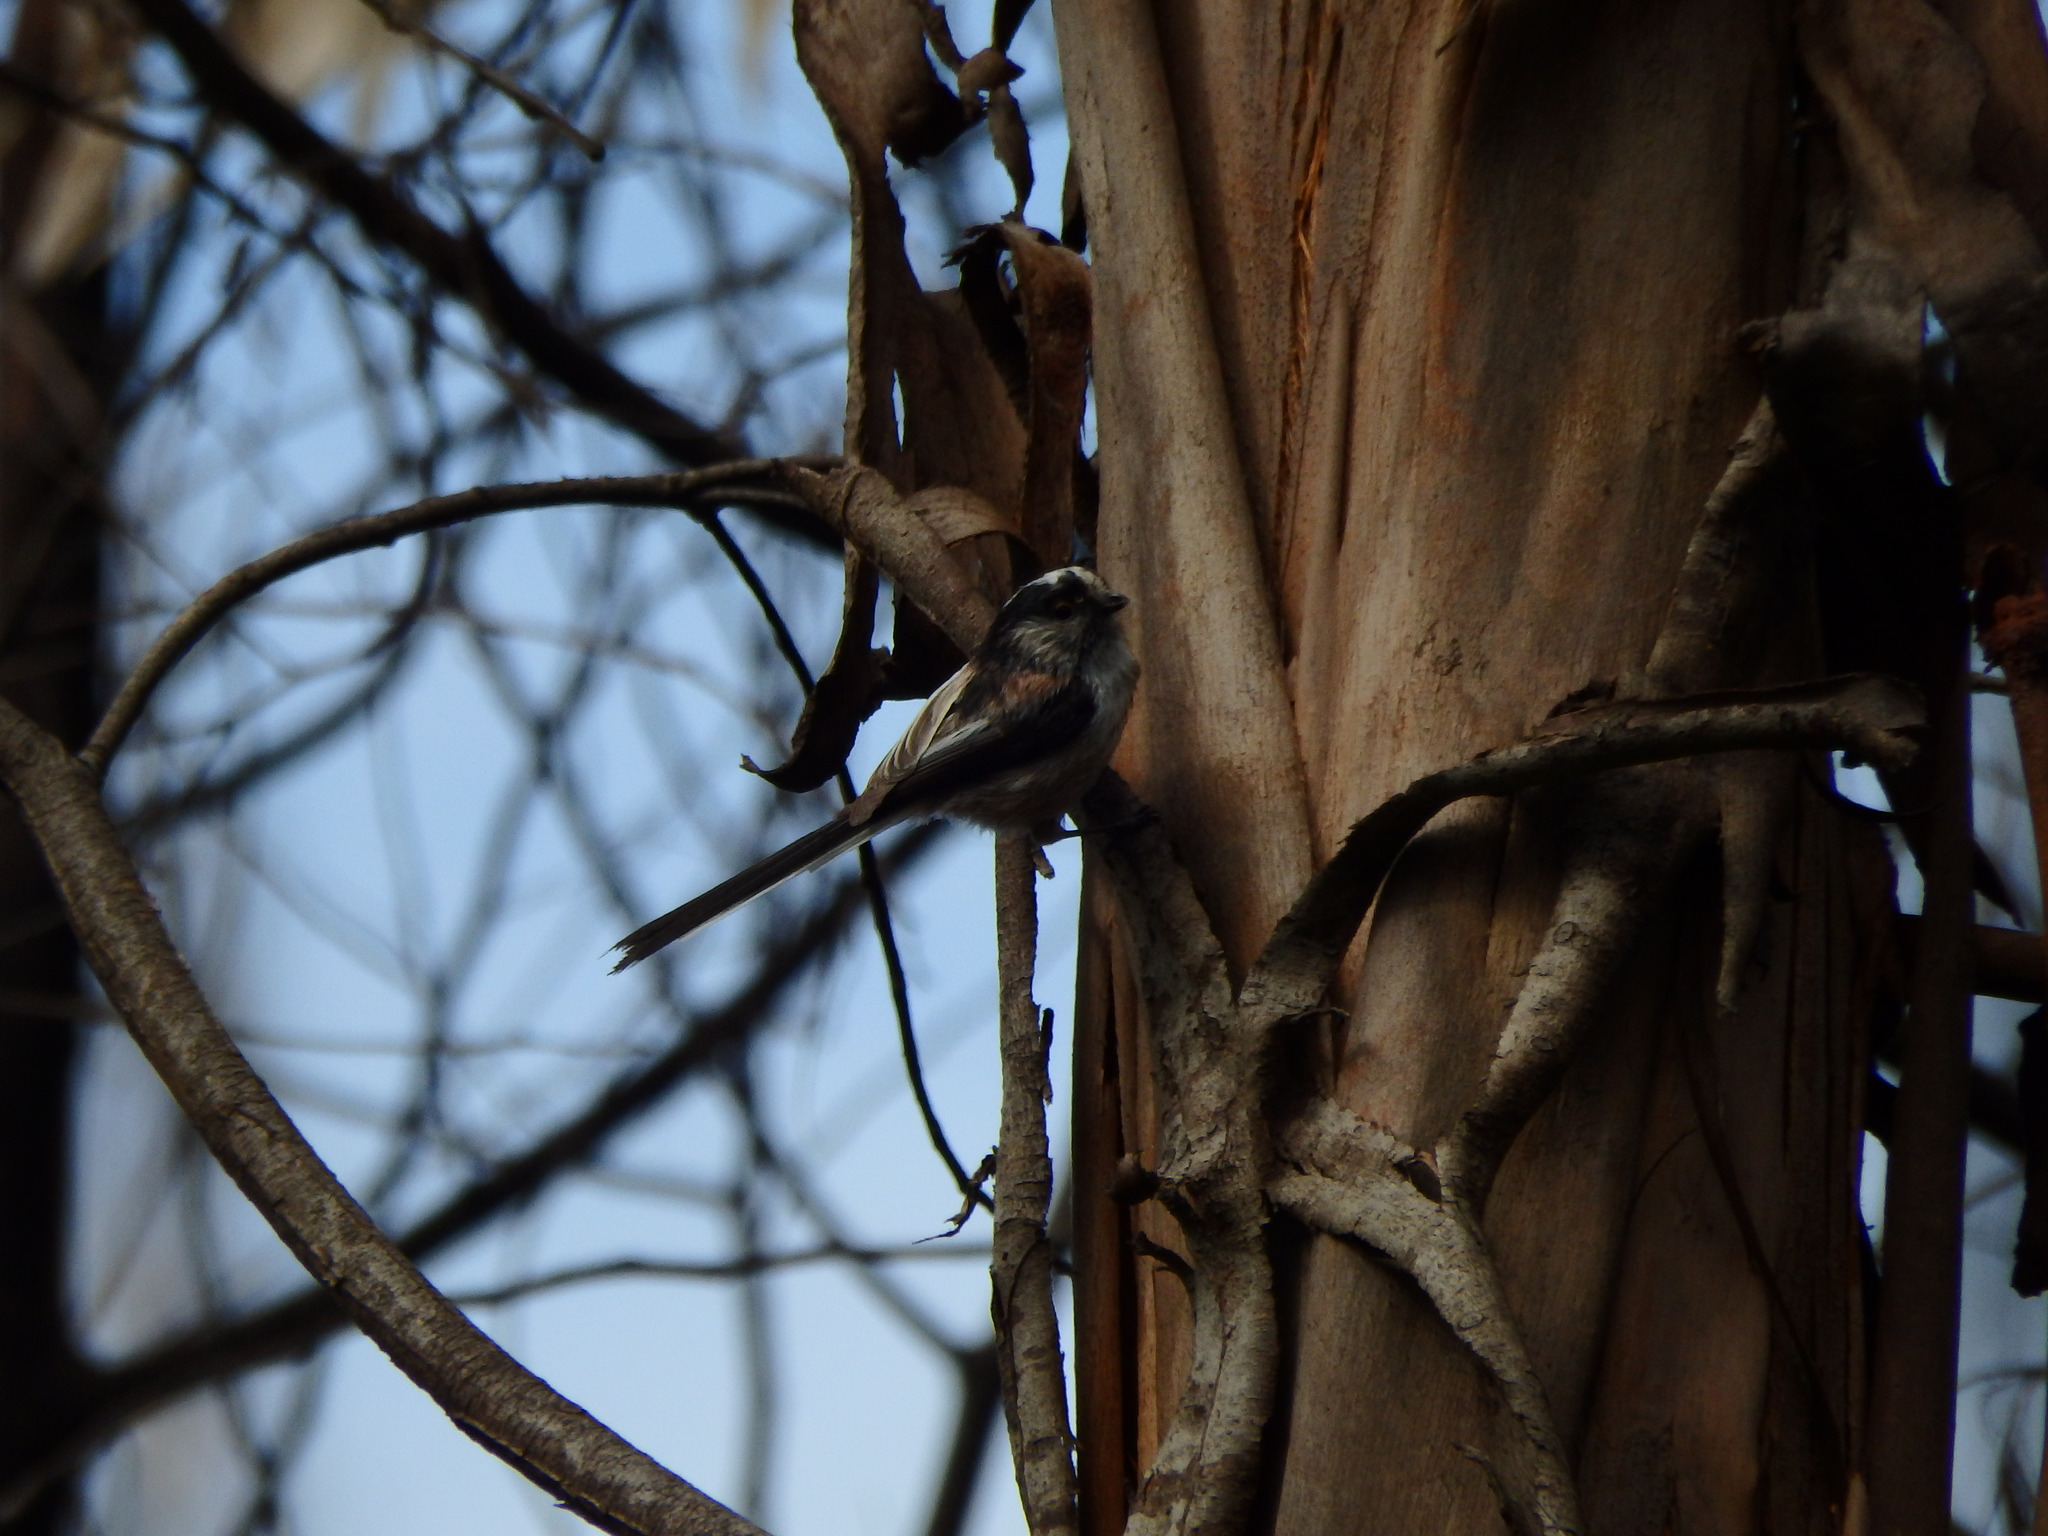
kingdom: Animalia
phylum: Chordata
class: Aves
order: Passeriformes
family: Aegithalidae
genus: Aegithalos
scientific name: Aegithalos caudatus
